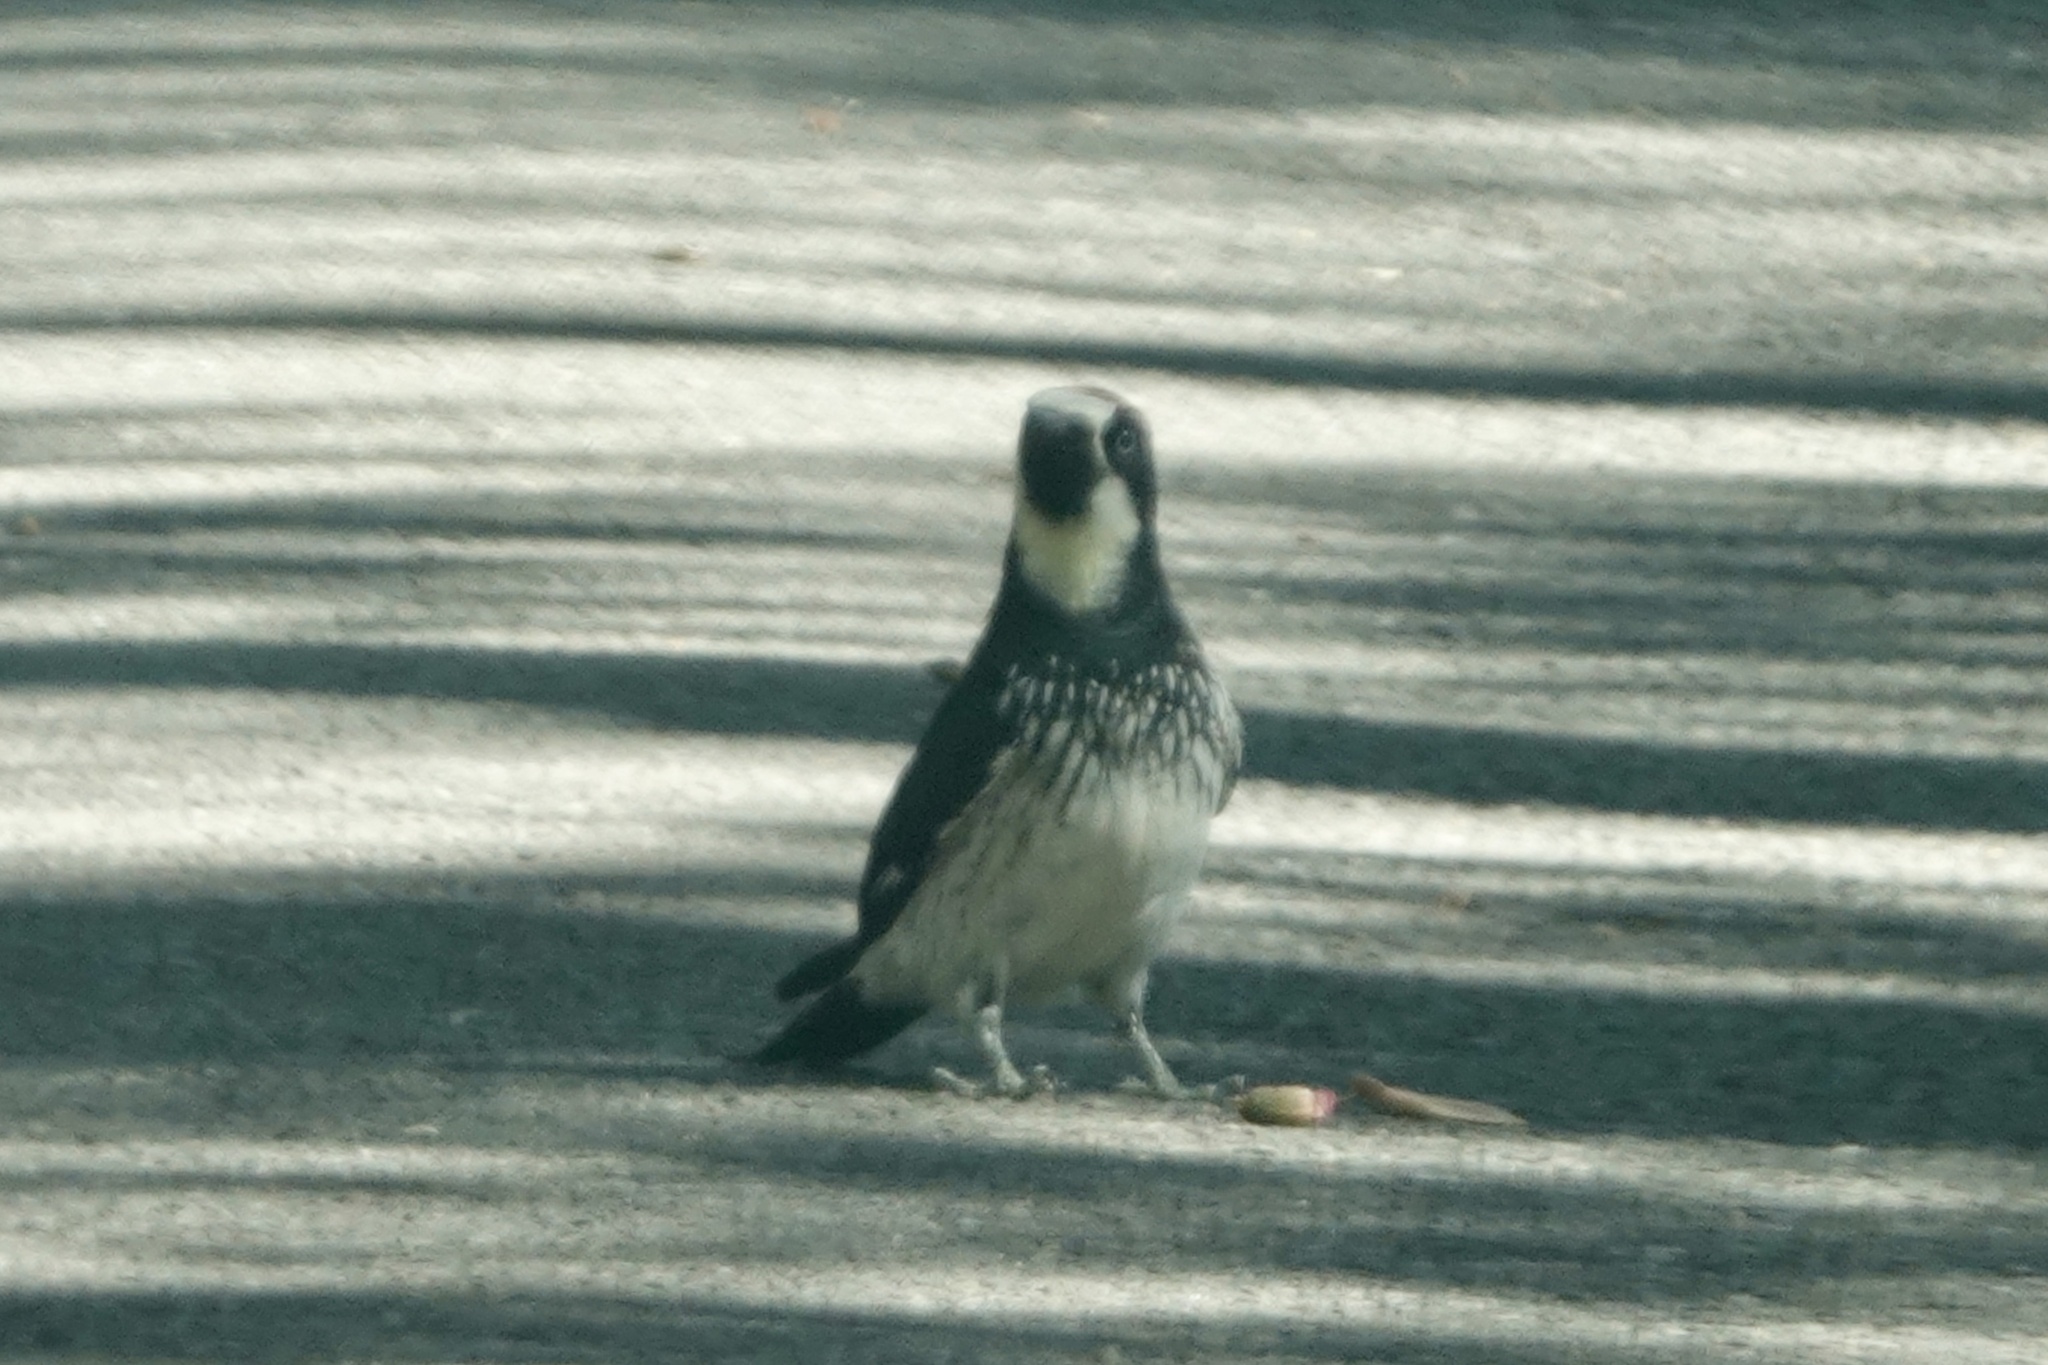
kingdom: Animalia
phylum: Chordata
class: Aves
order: Piciformes
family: Picidae
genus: Melanerpes
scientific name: Melanerpes formicivorus
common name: Acorn woodpecker
